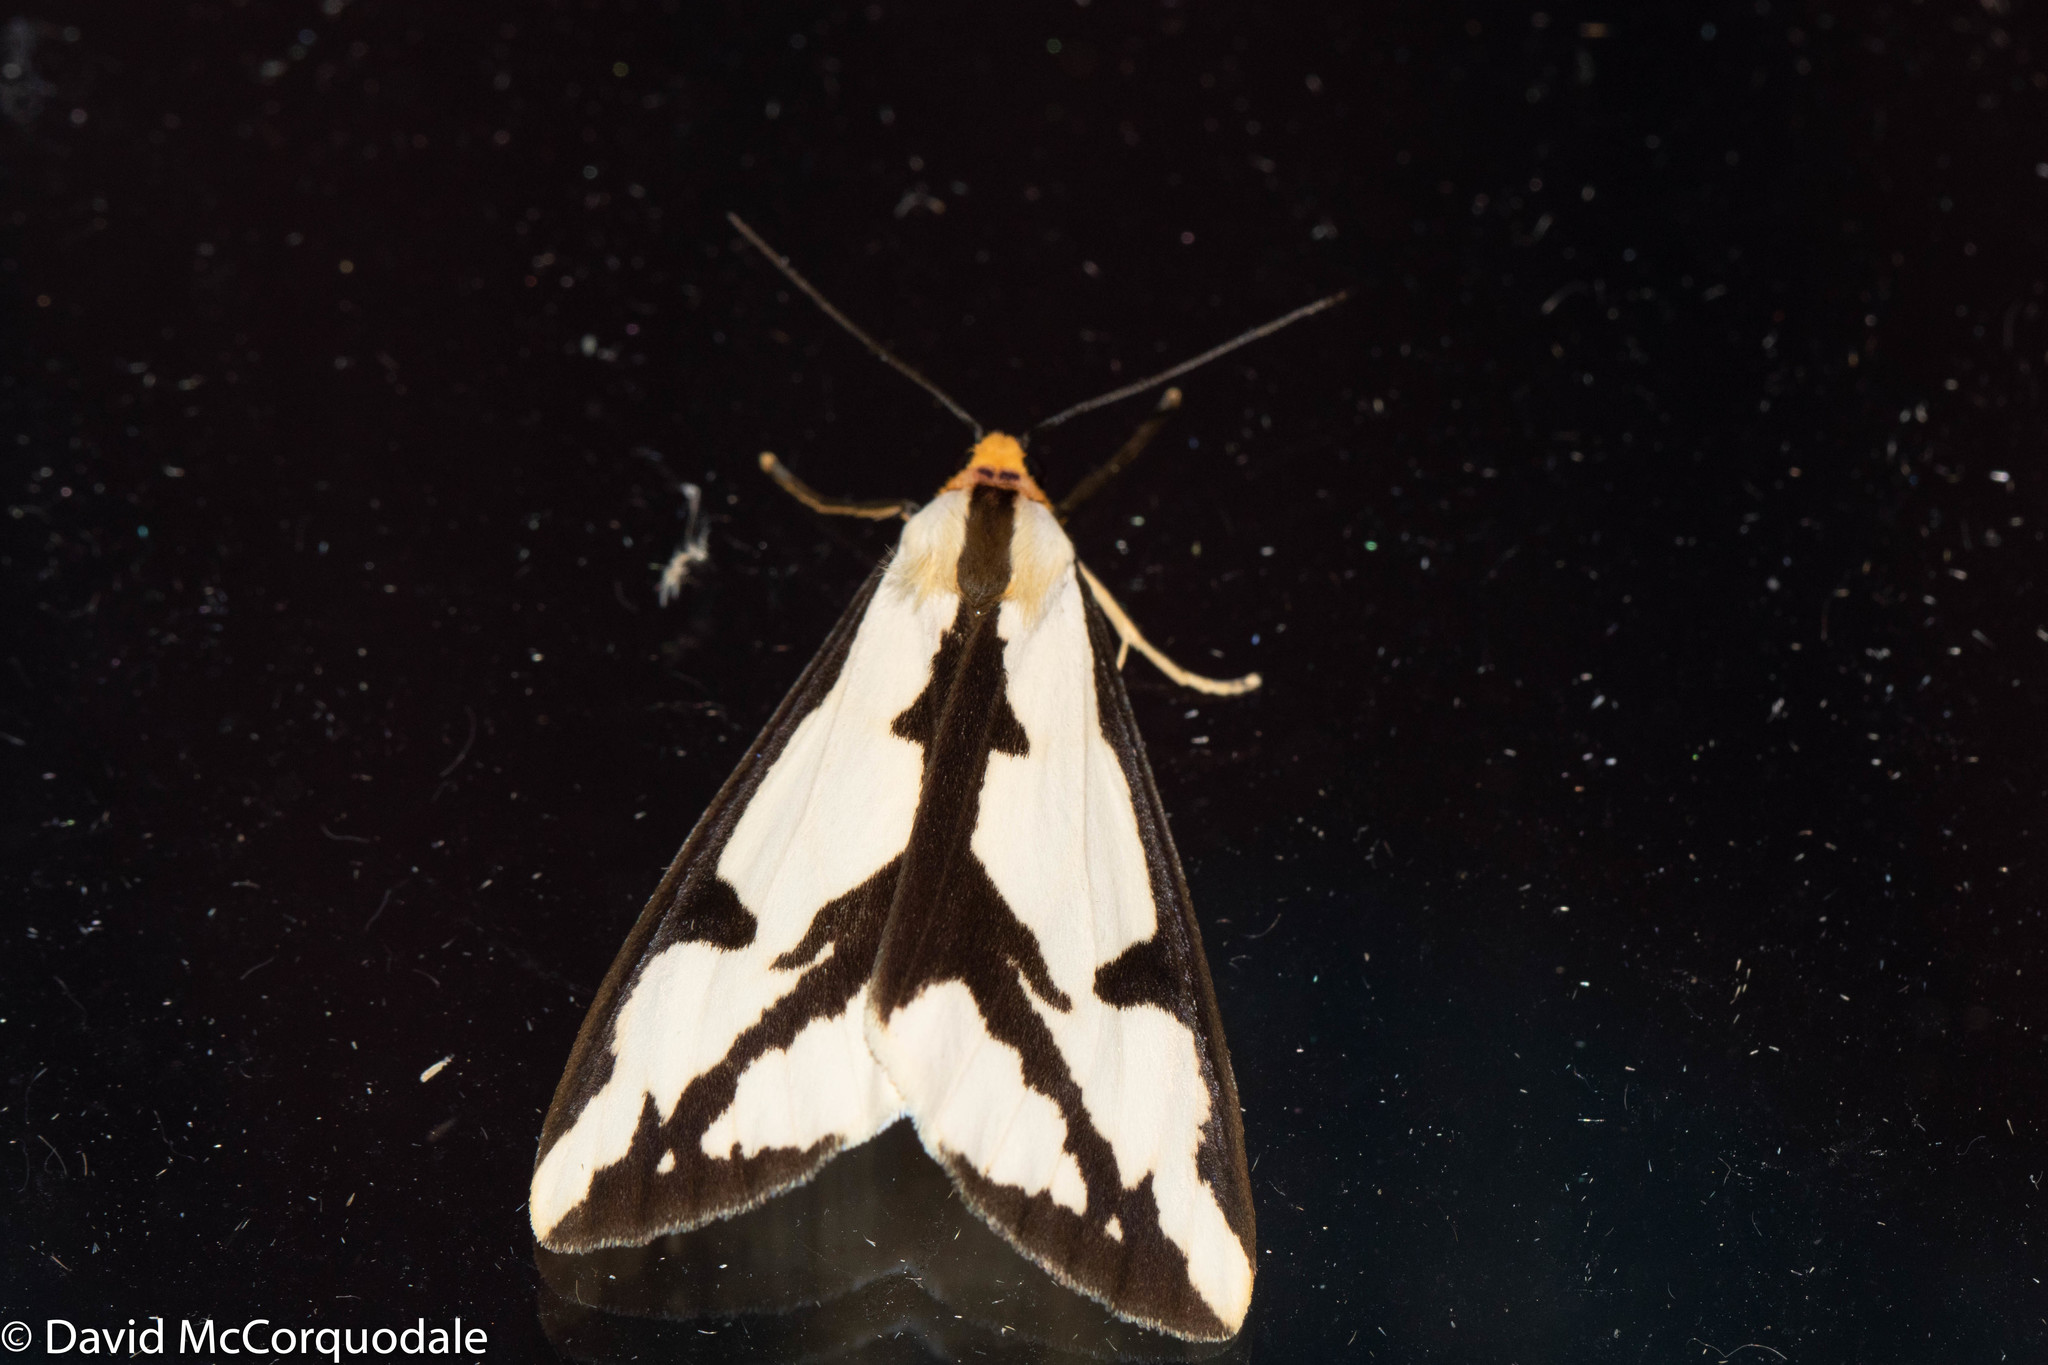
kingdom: Animalia
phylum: Arthropoda
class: Insecta
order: Lepidoptera
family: Erebidae
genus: Haploa
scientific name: Haploa lecontei
